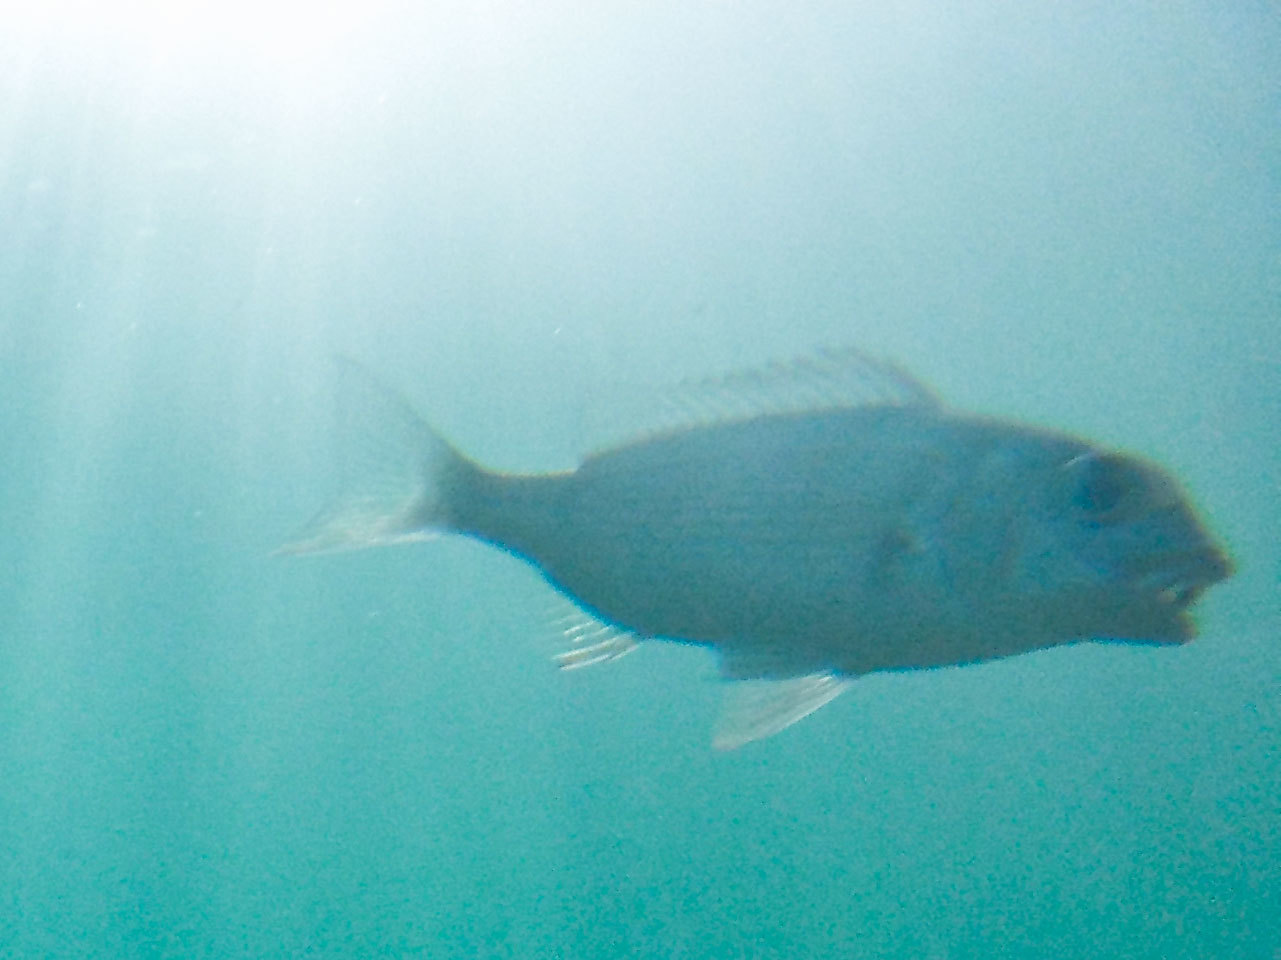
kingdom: Animalia
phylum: Chordata
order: Perciformes
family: Sparidae
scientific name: Sparidae
